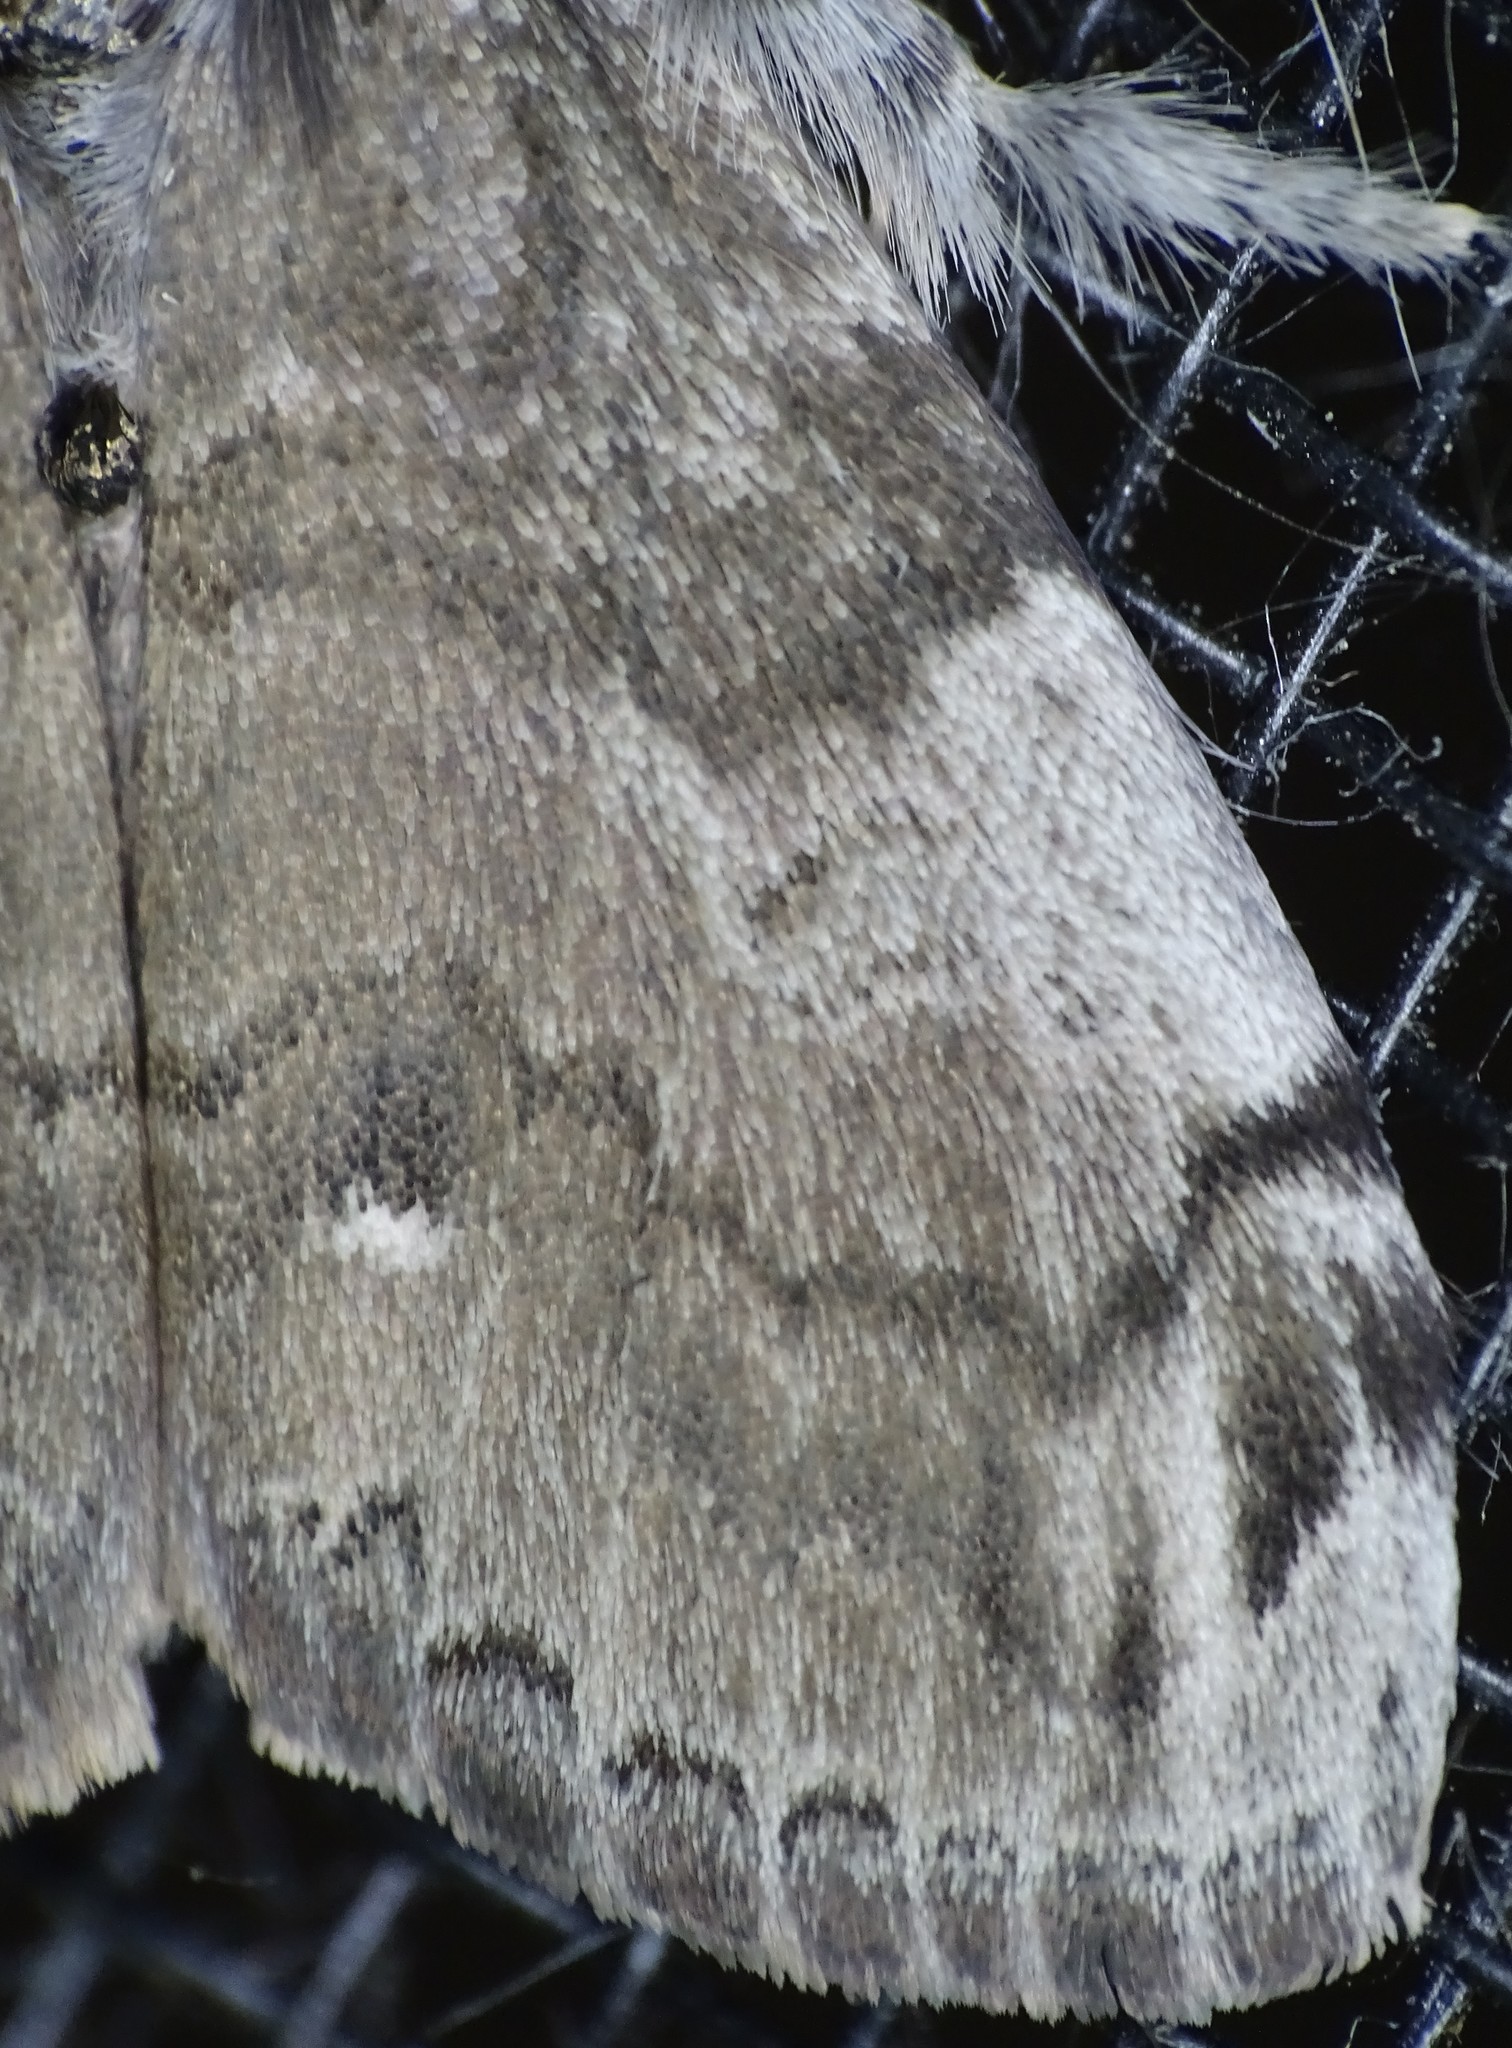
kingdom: Animalia
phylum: Arthropoda
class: Insecta
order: Lepidoptera
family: Erebidae
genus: Orgyia
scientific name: Orgyia leucostigma
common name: White-marked tussock moth
